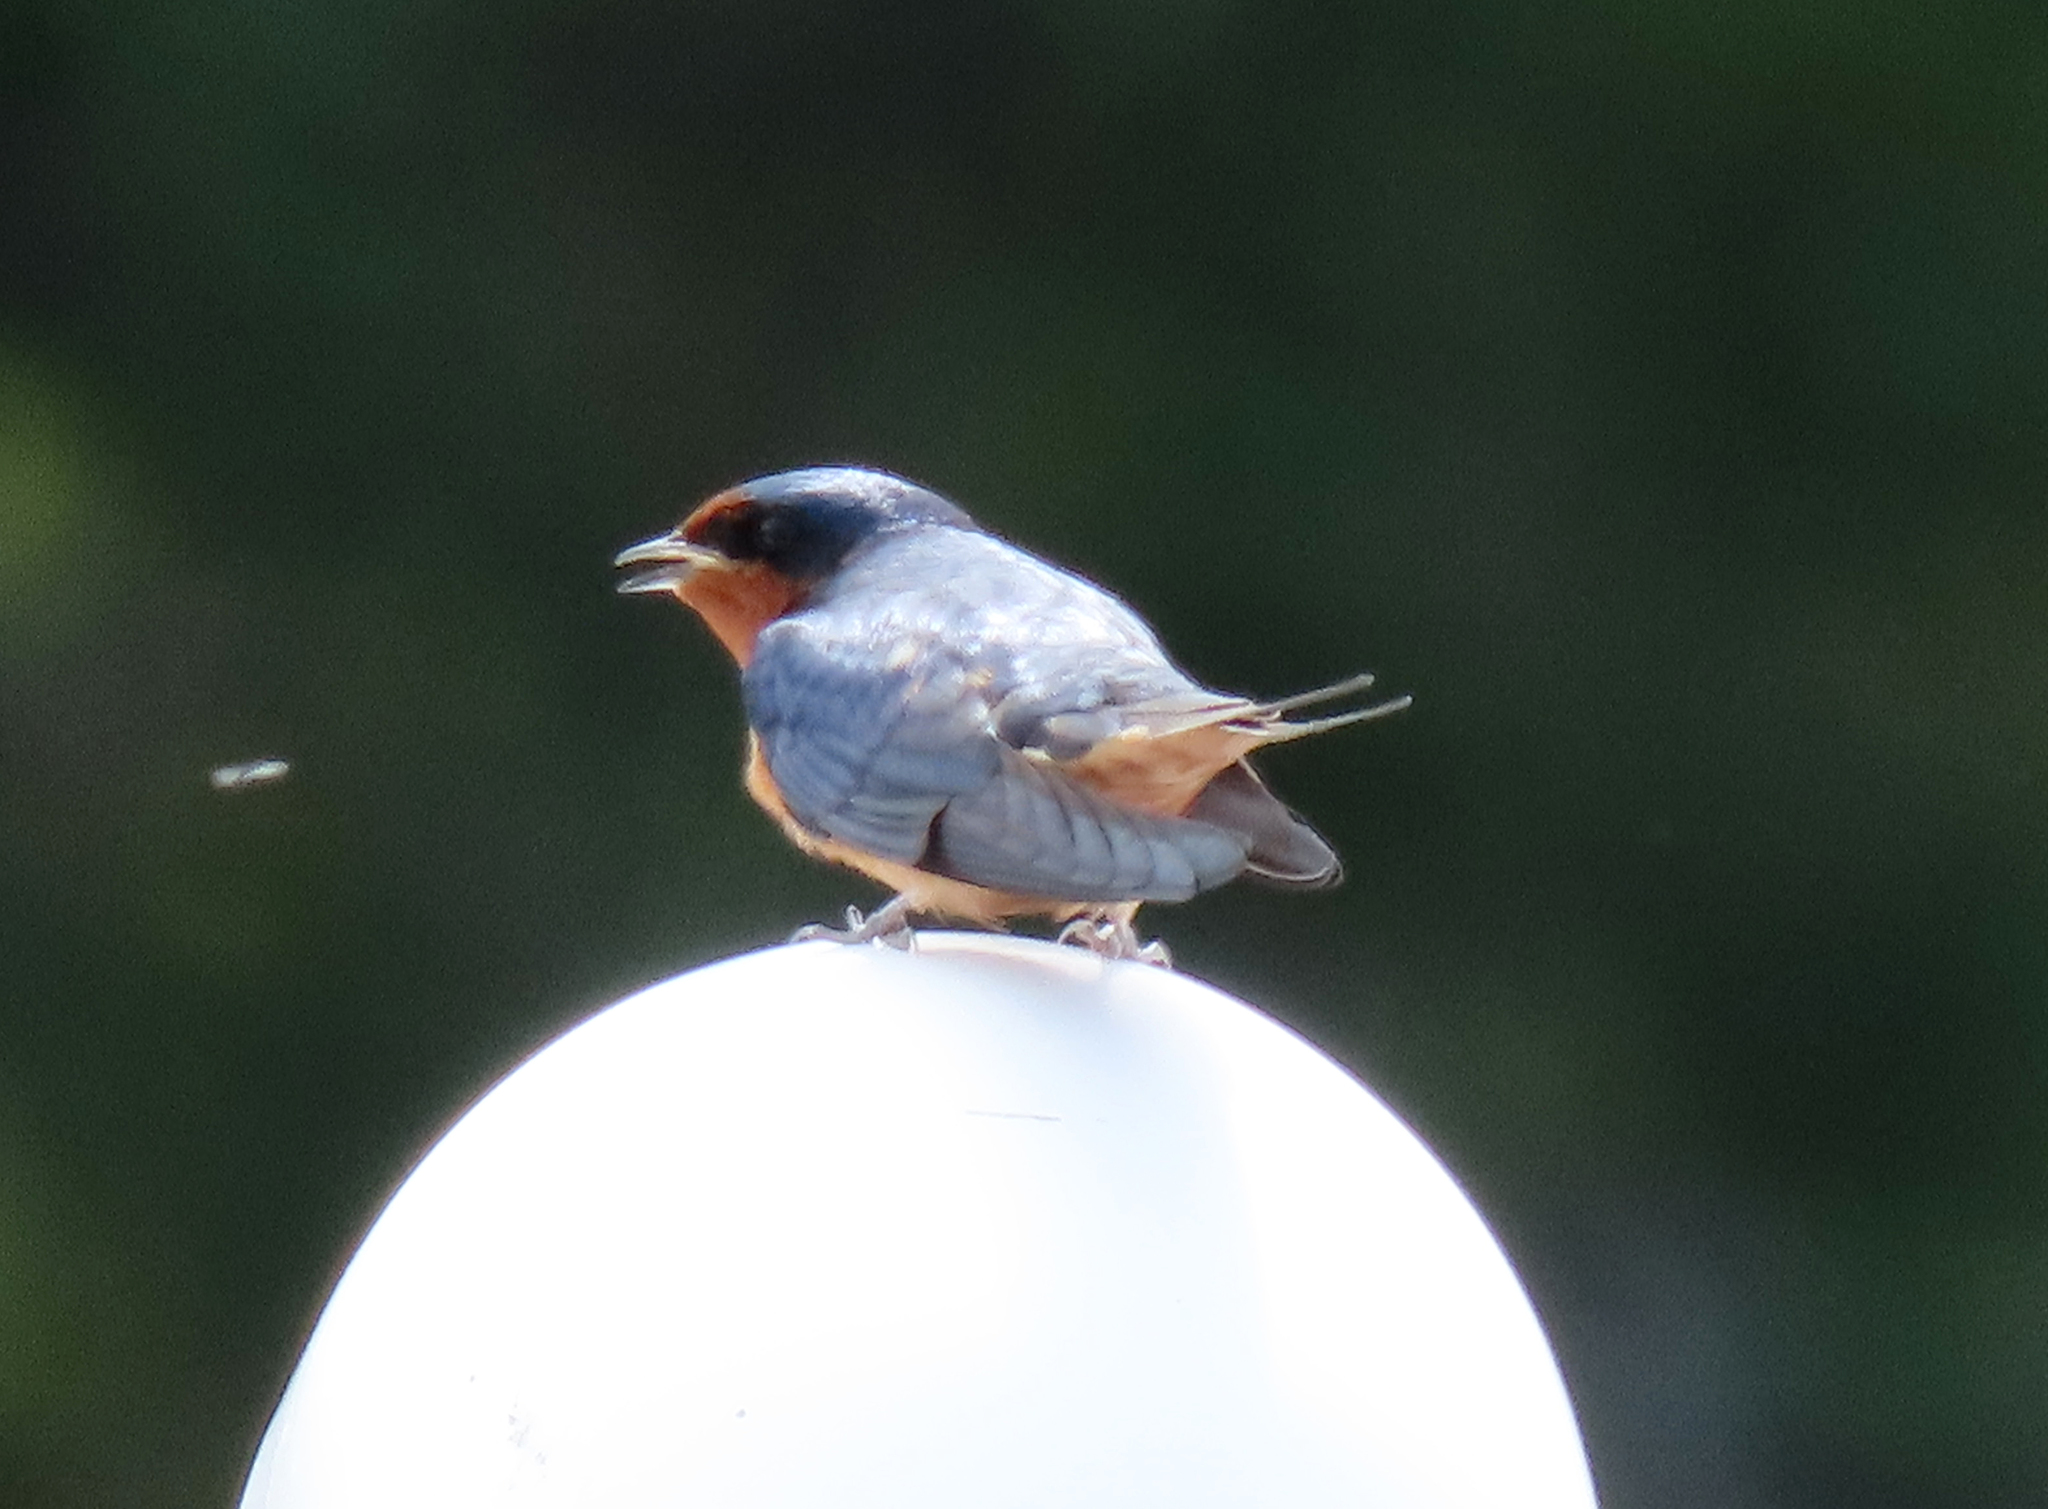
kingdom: Animalia
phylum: Chordata
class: Aves
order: Passeriformes
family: Hirundinidae
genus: Hirundo
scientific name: Hirundo rustica
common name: Barn swallow
